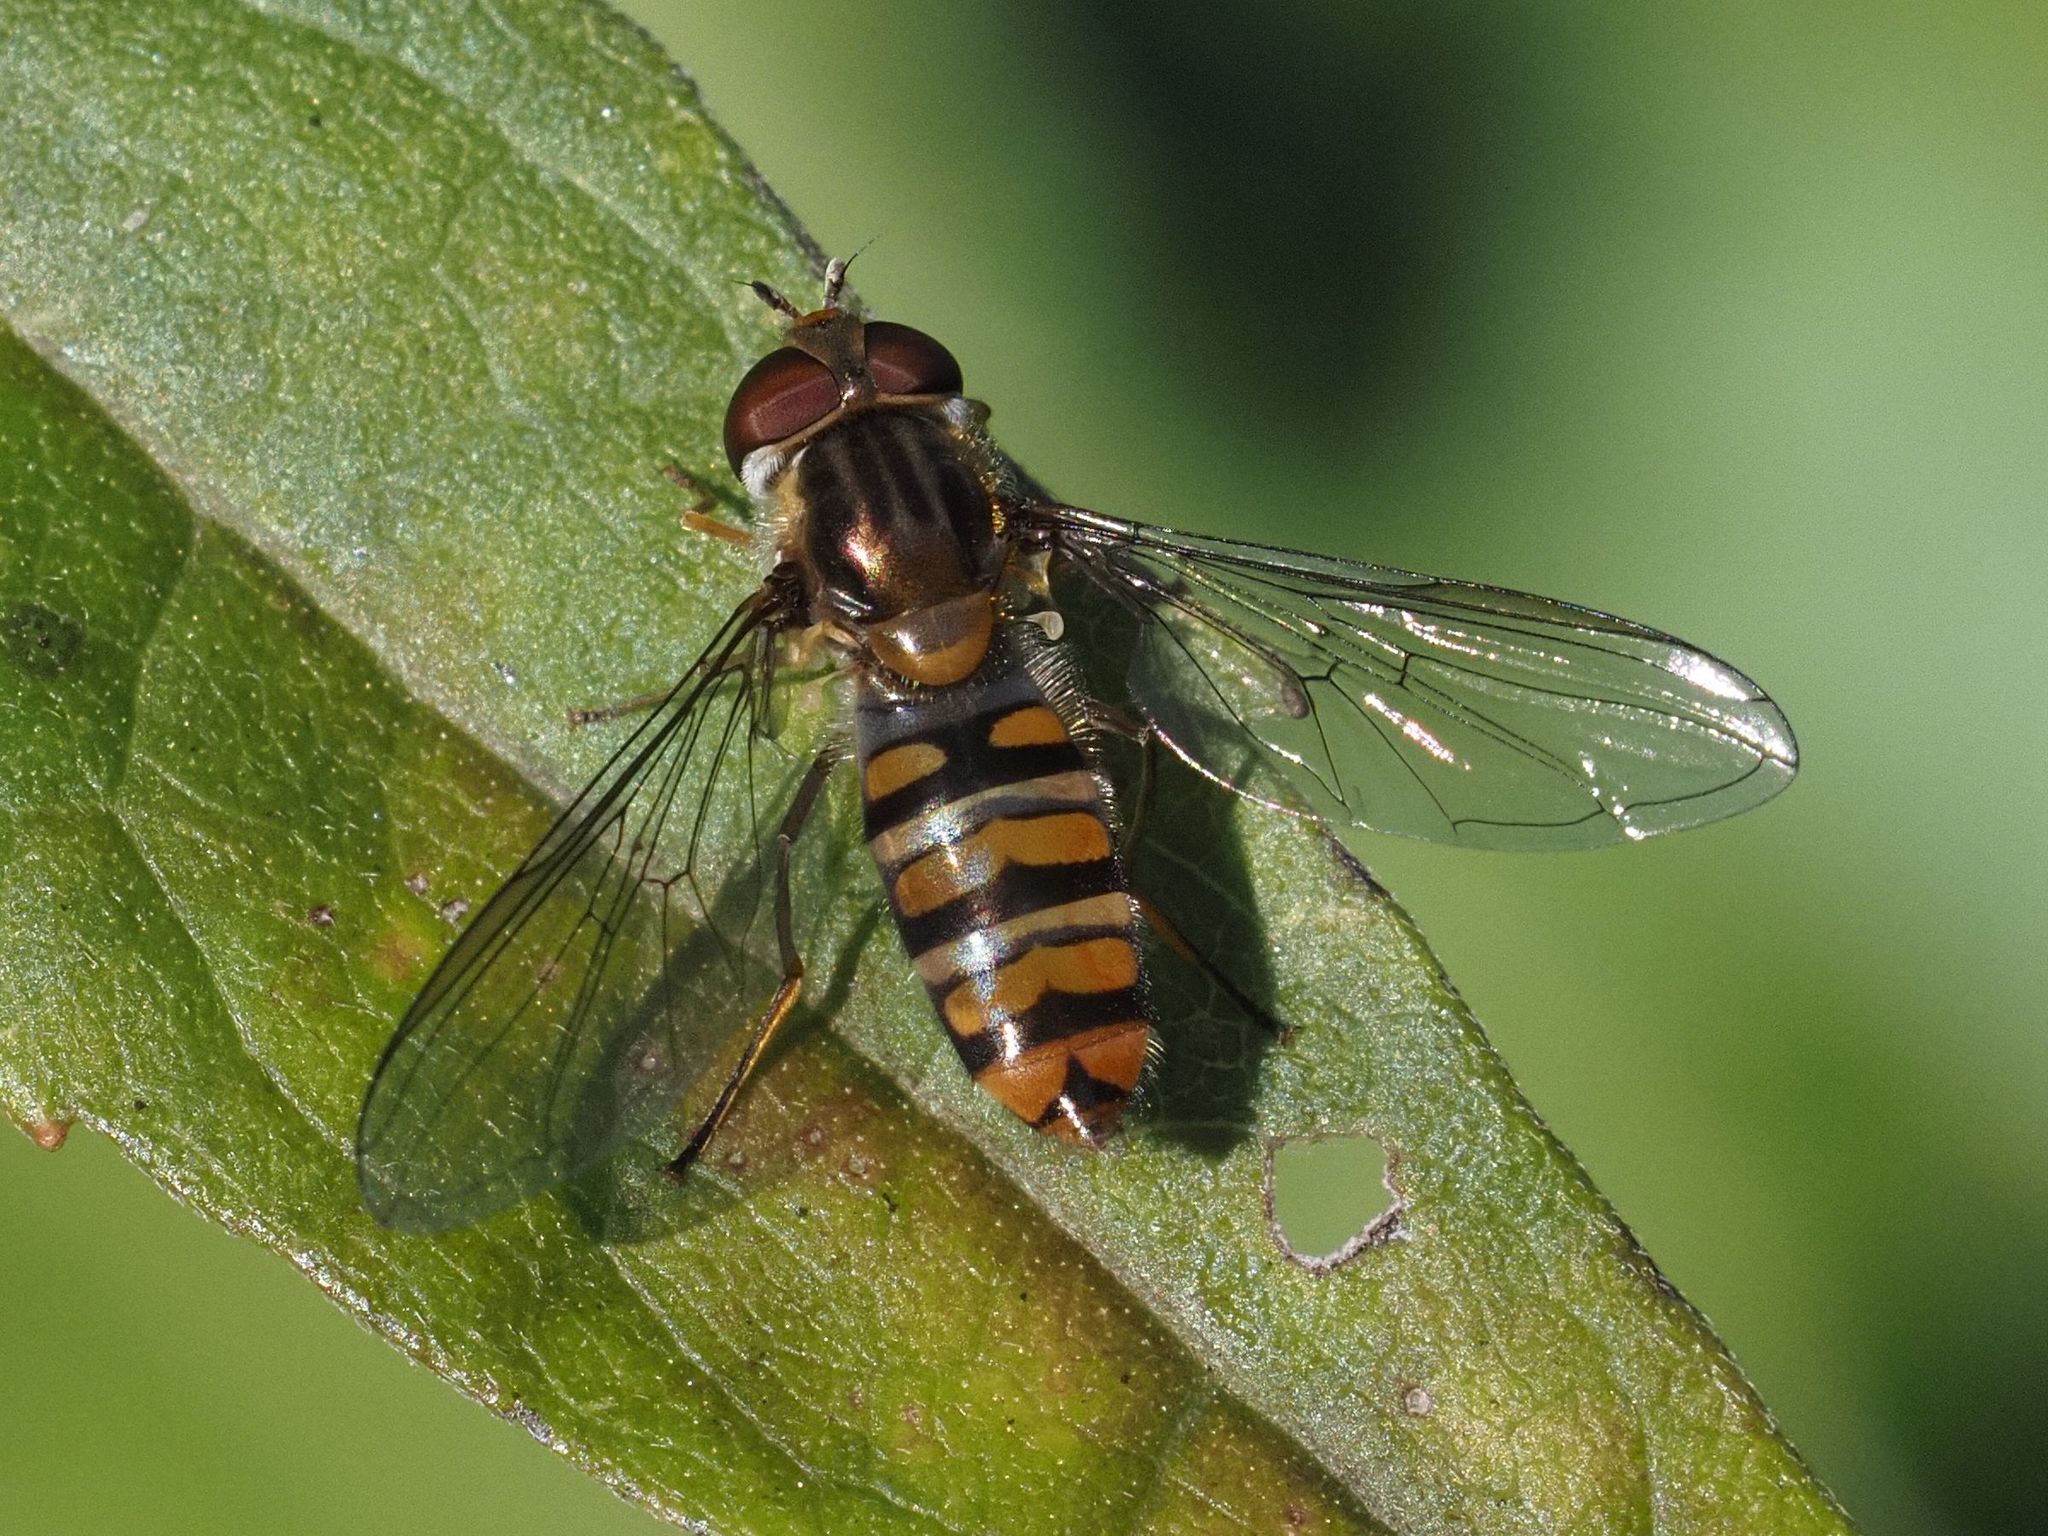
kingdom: Animalia
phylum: Arthropoda
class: Insecta
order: Diptera
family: Syrphidae
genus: Episyrphus
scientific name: Episyrphus balteatus
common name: Marmalade hoverfly
